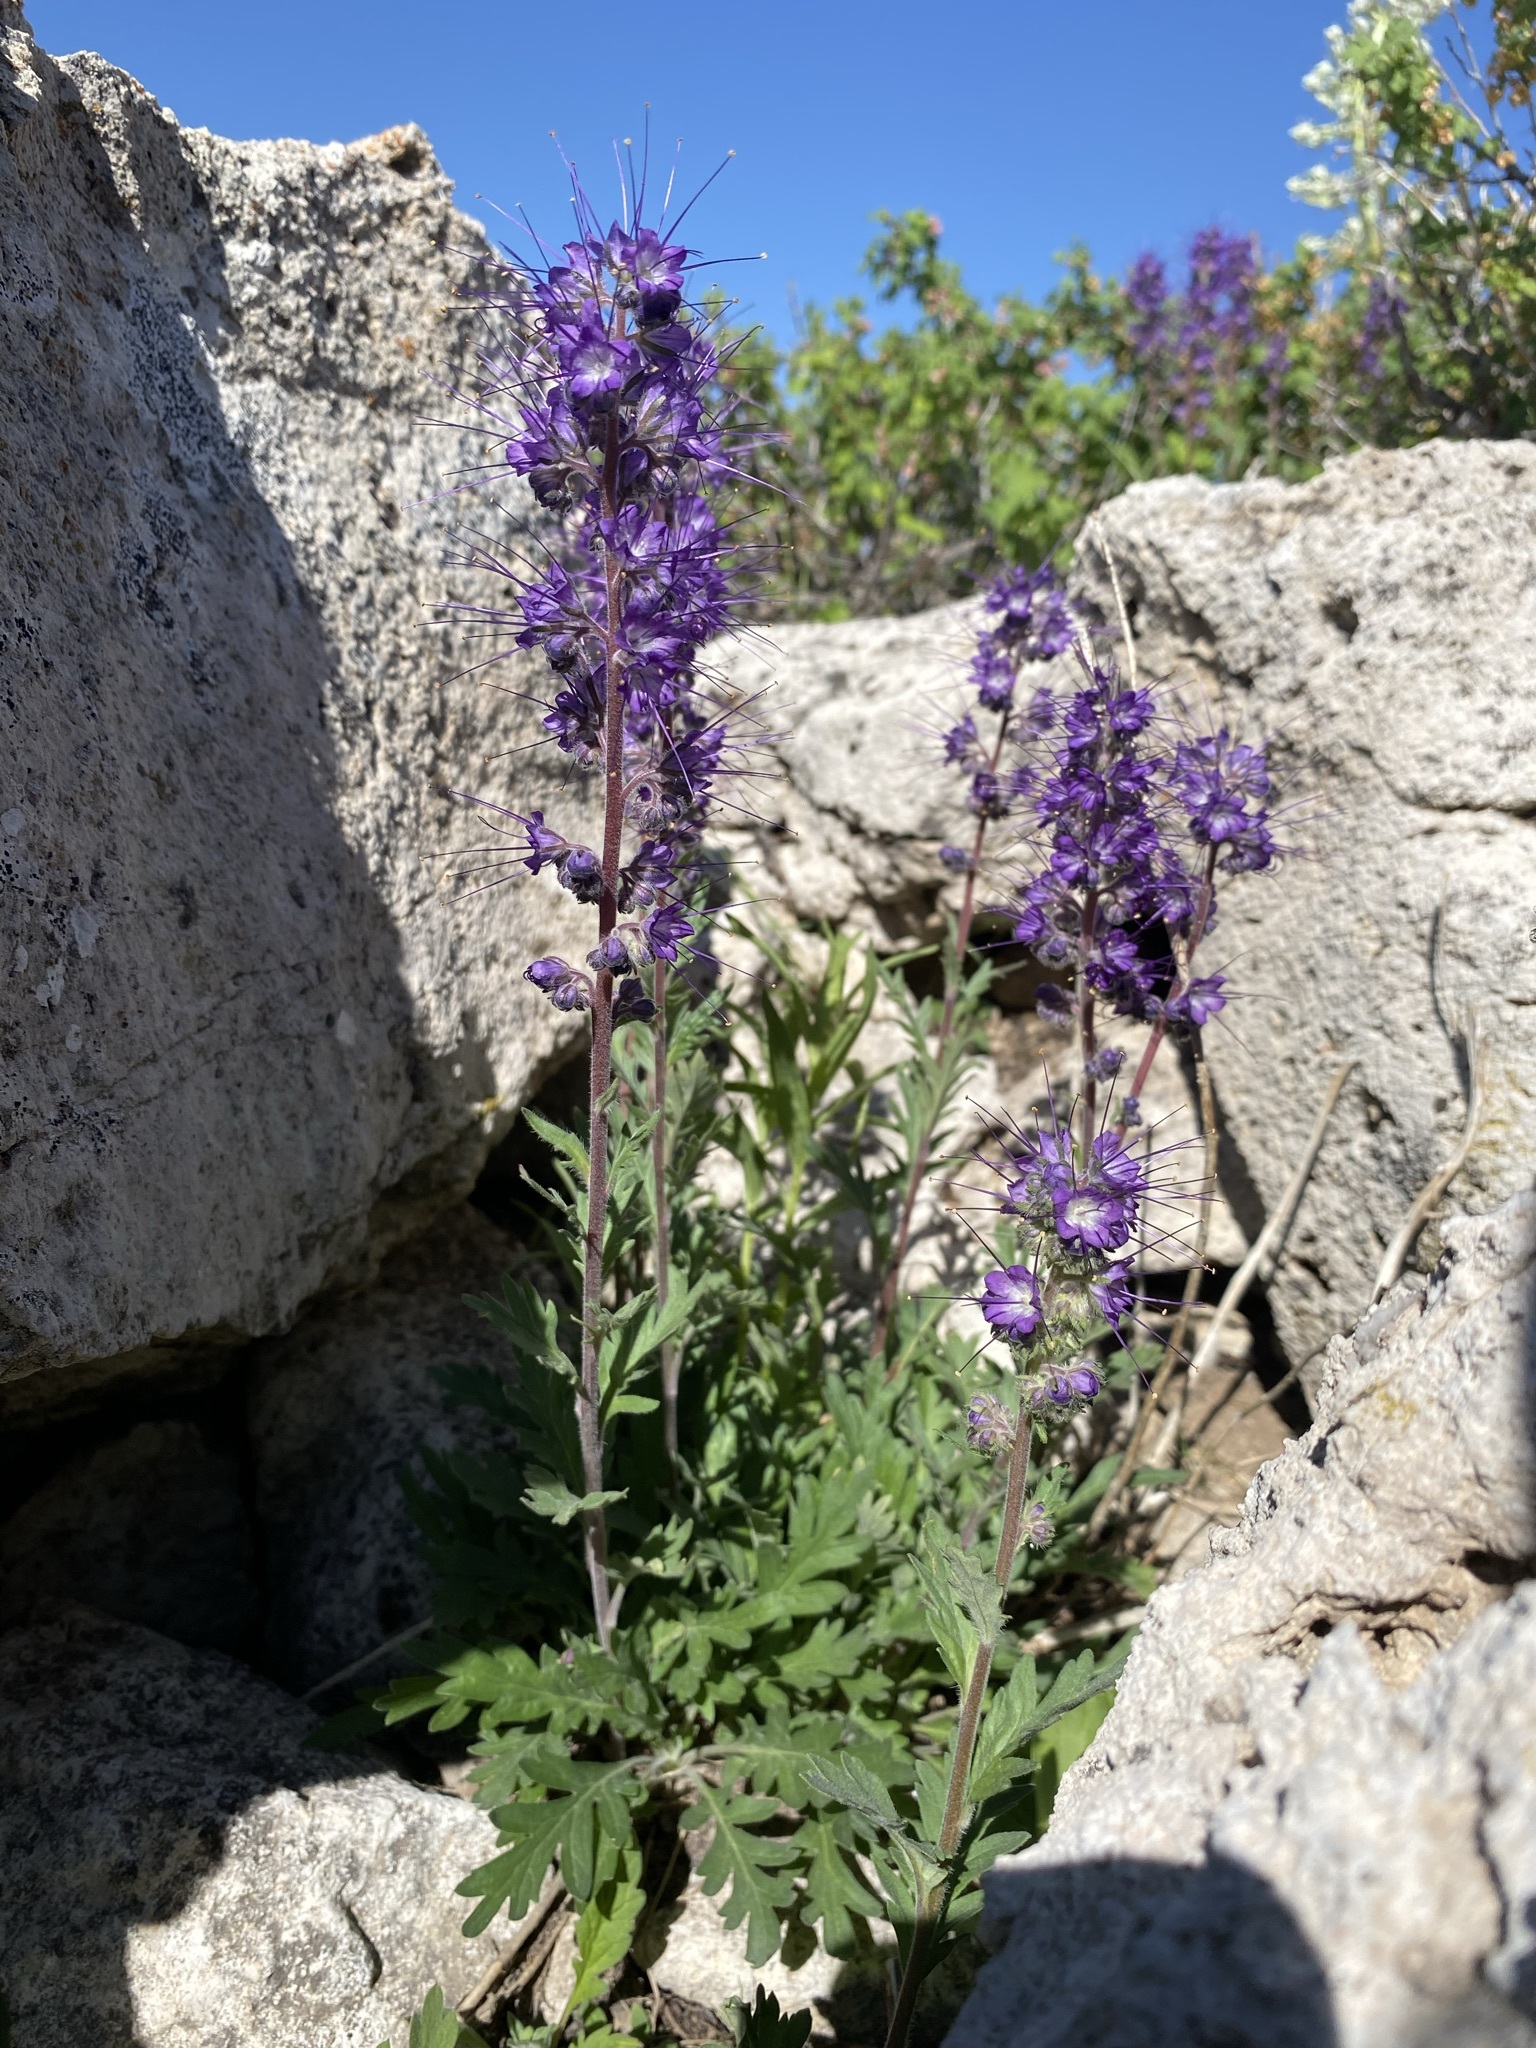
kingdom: Plantae
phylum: Tracheophyta
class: Magnoliopsida
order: Boraginales
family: Hydrophyllaceae
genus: Phacelia
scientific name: Phacelia sericea
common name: Silky phacelia
